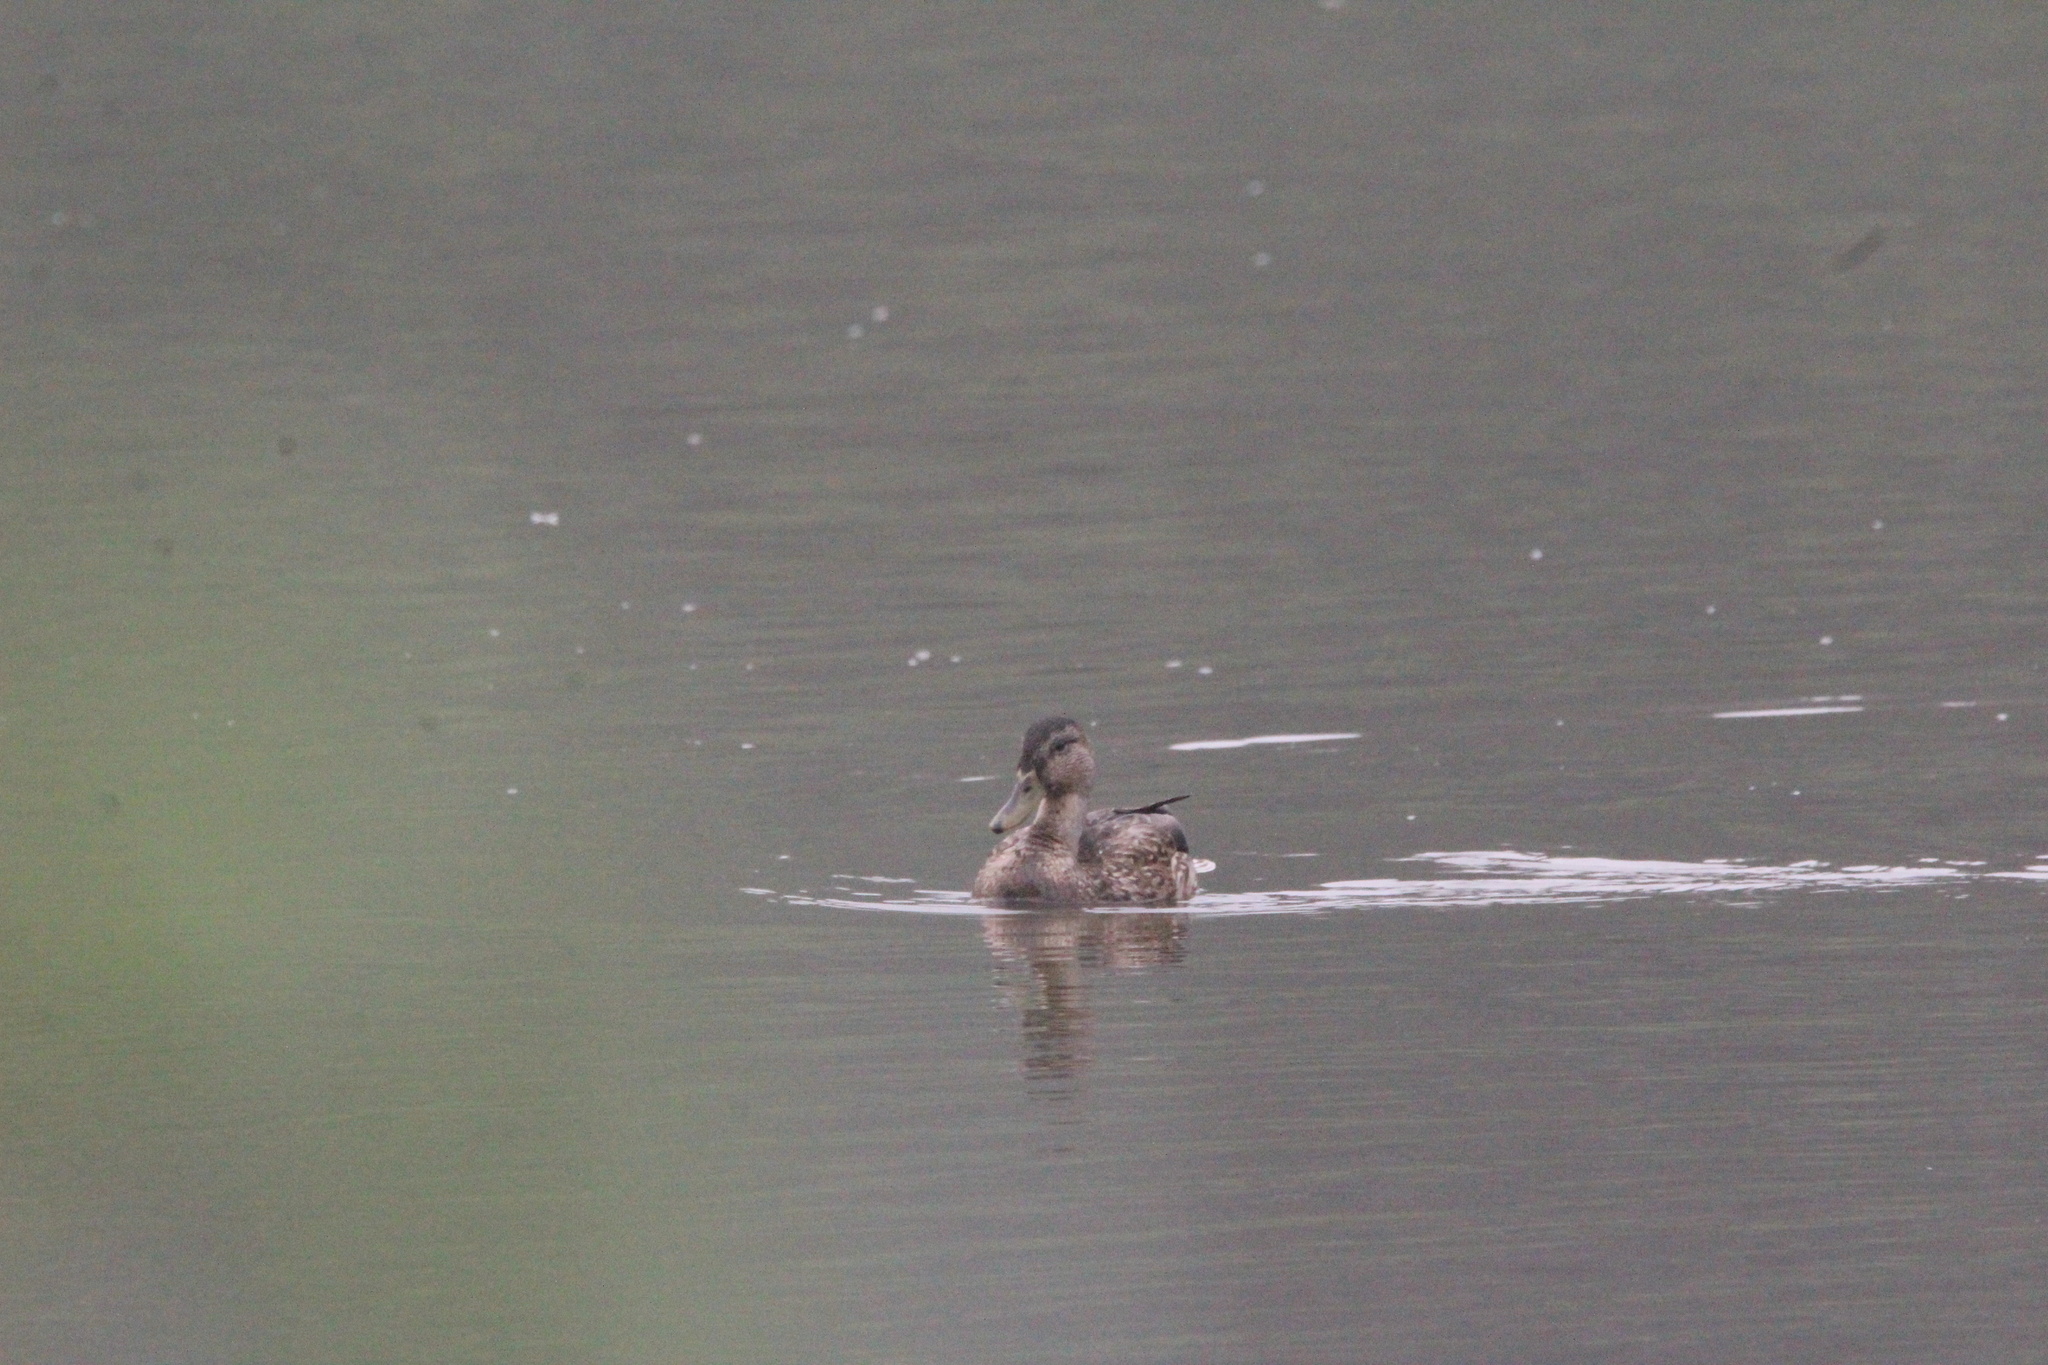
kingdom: Animalia
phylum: Chordata
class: Aves
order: Anseriformes
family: Anatidae
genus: Anas
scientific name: Anas platyrhynchos
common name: Mallard
